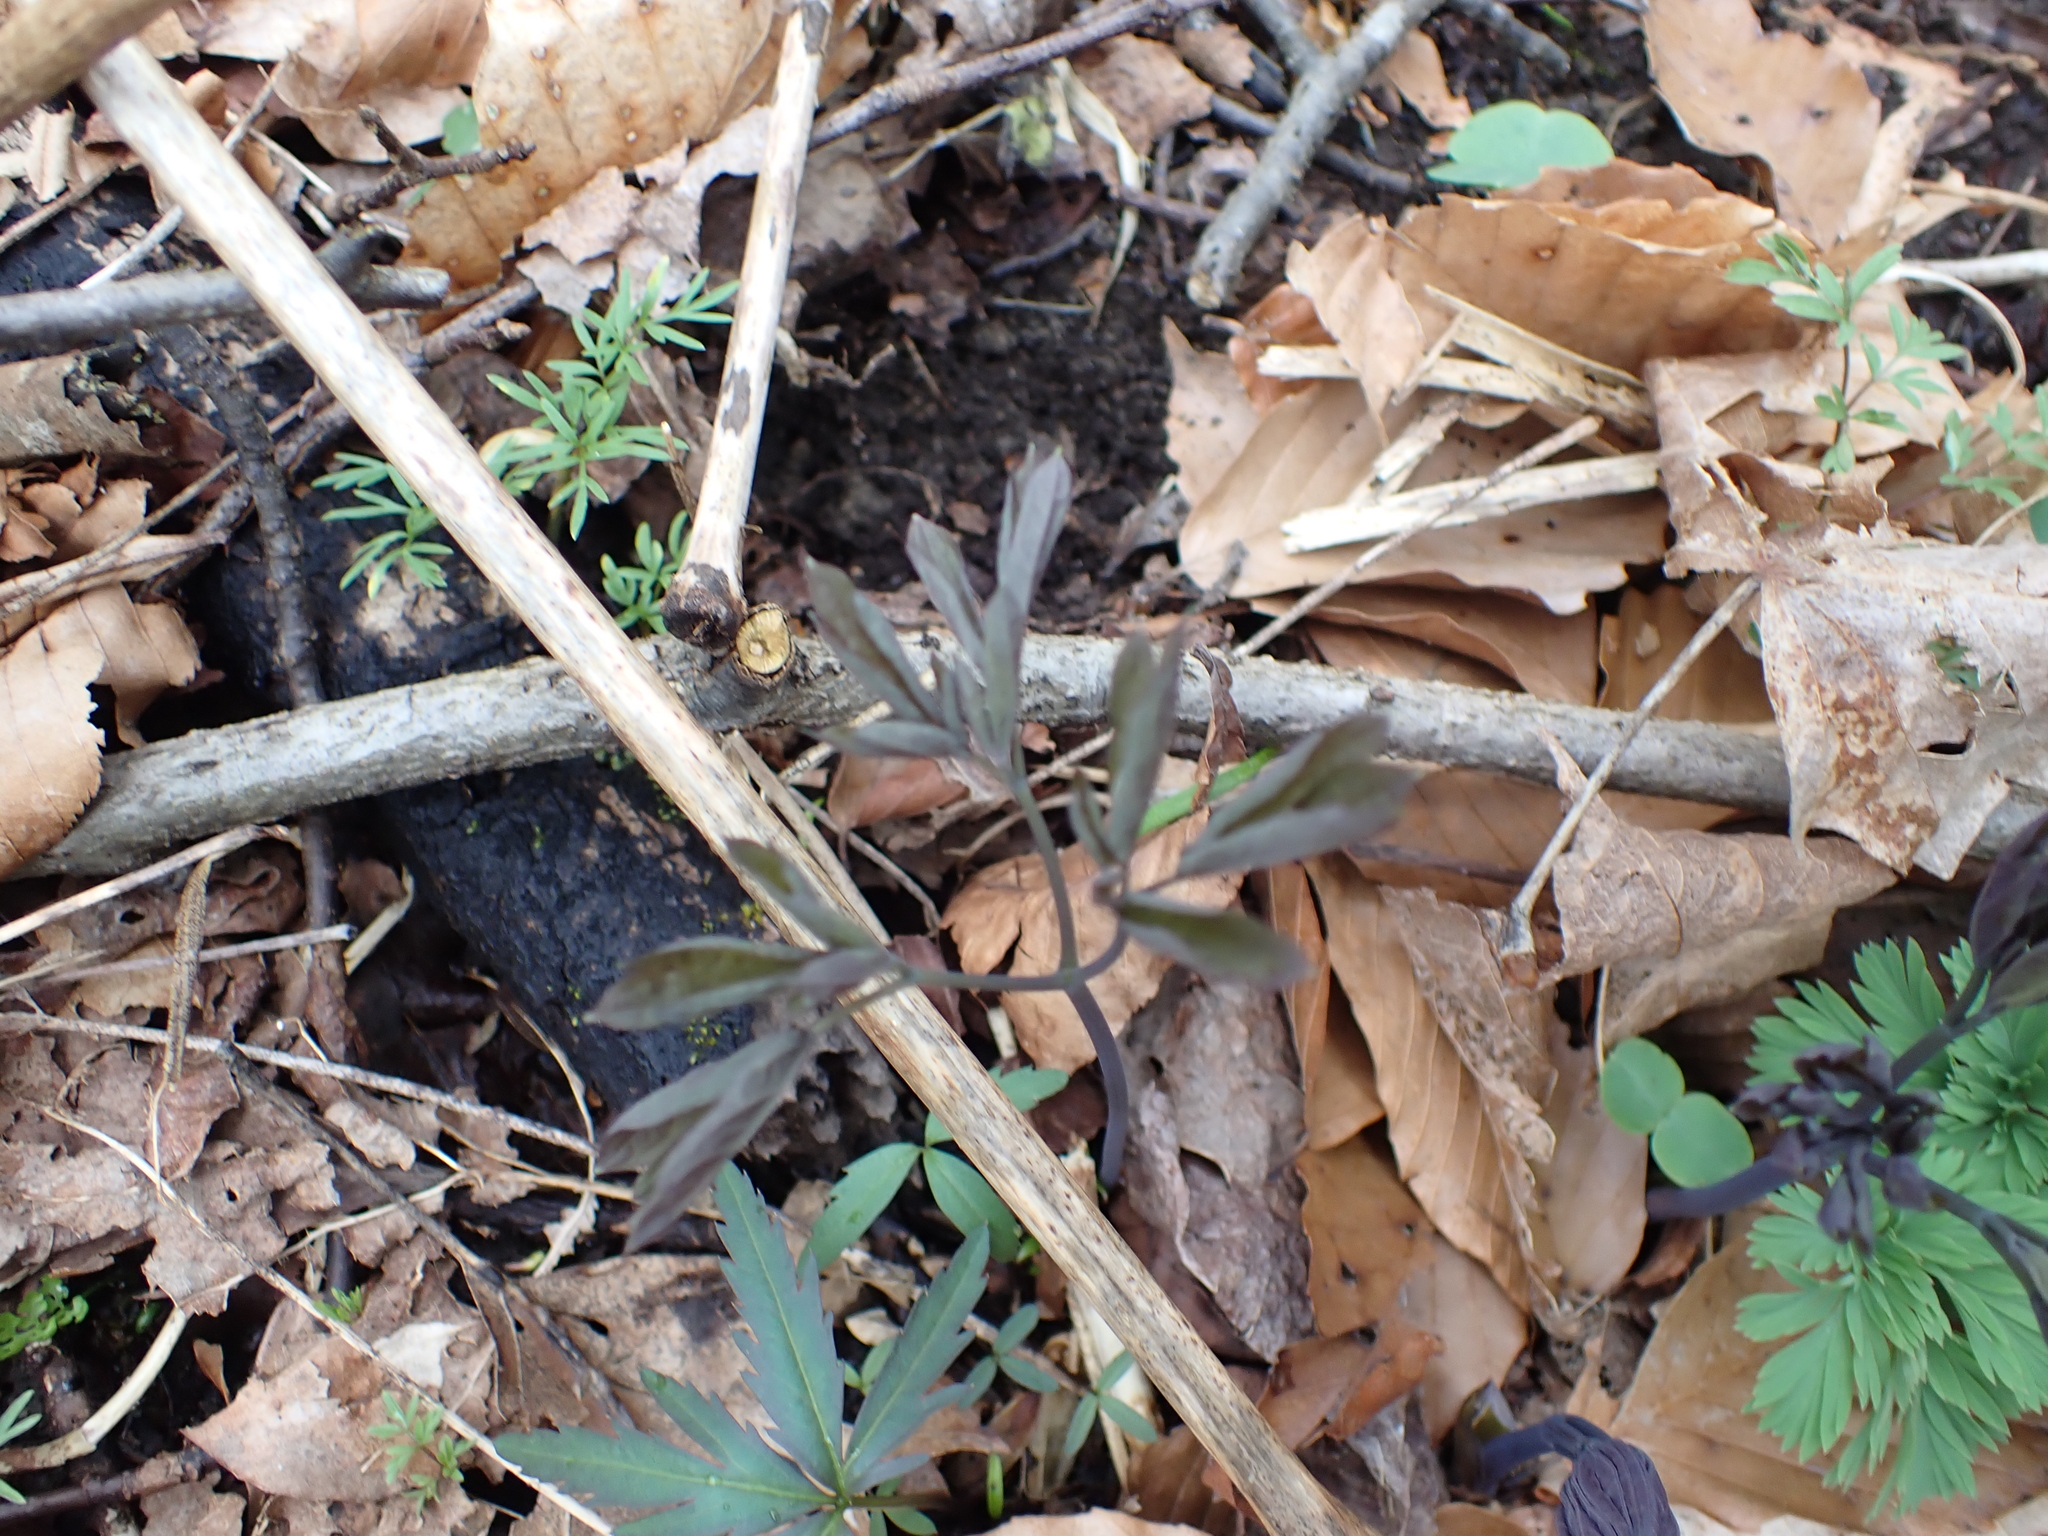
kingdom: Plantae
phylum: Tracheophyta
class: Magnoliopsida
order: Ranunculales
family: Berberidaceae
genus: Caulophyllum
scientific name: Caulophyllum giganteum
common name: Blue cohosh
